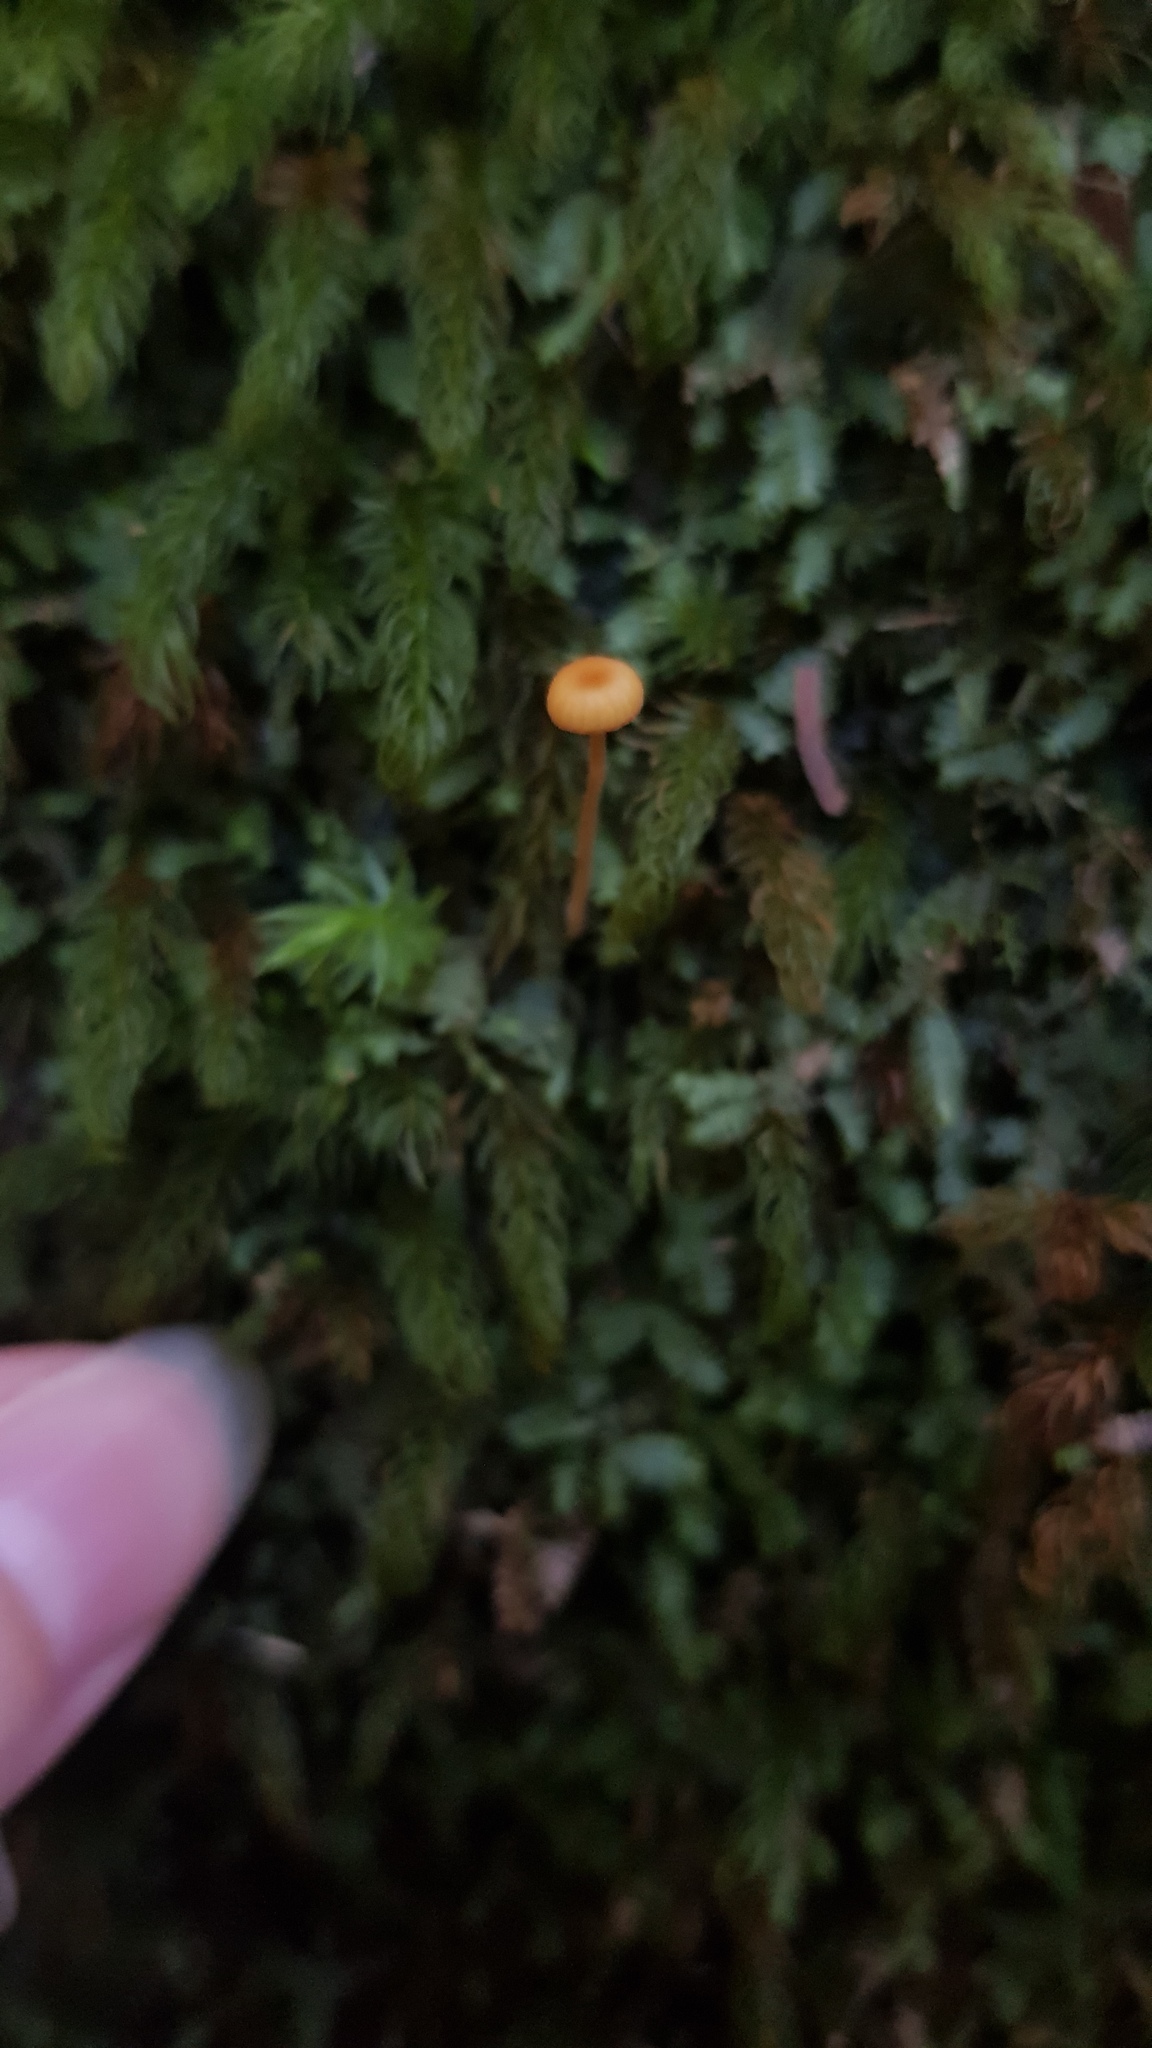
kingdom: Fungi
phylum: Basidiomycota
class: Agaricomycetes
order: Hymenochaetales
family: Rickenellaceae
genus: Rickenella
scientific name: Rickenella fibula
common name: Orange mosscap
